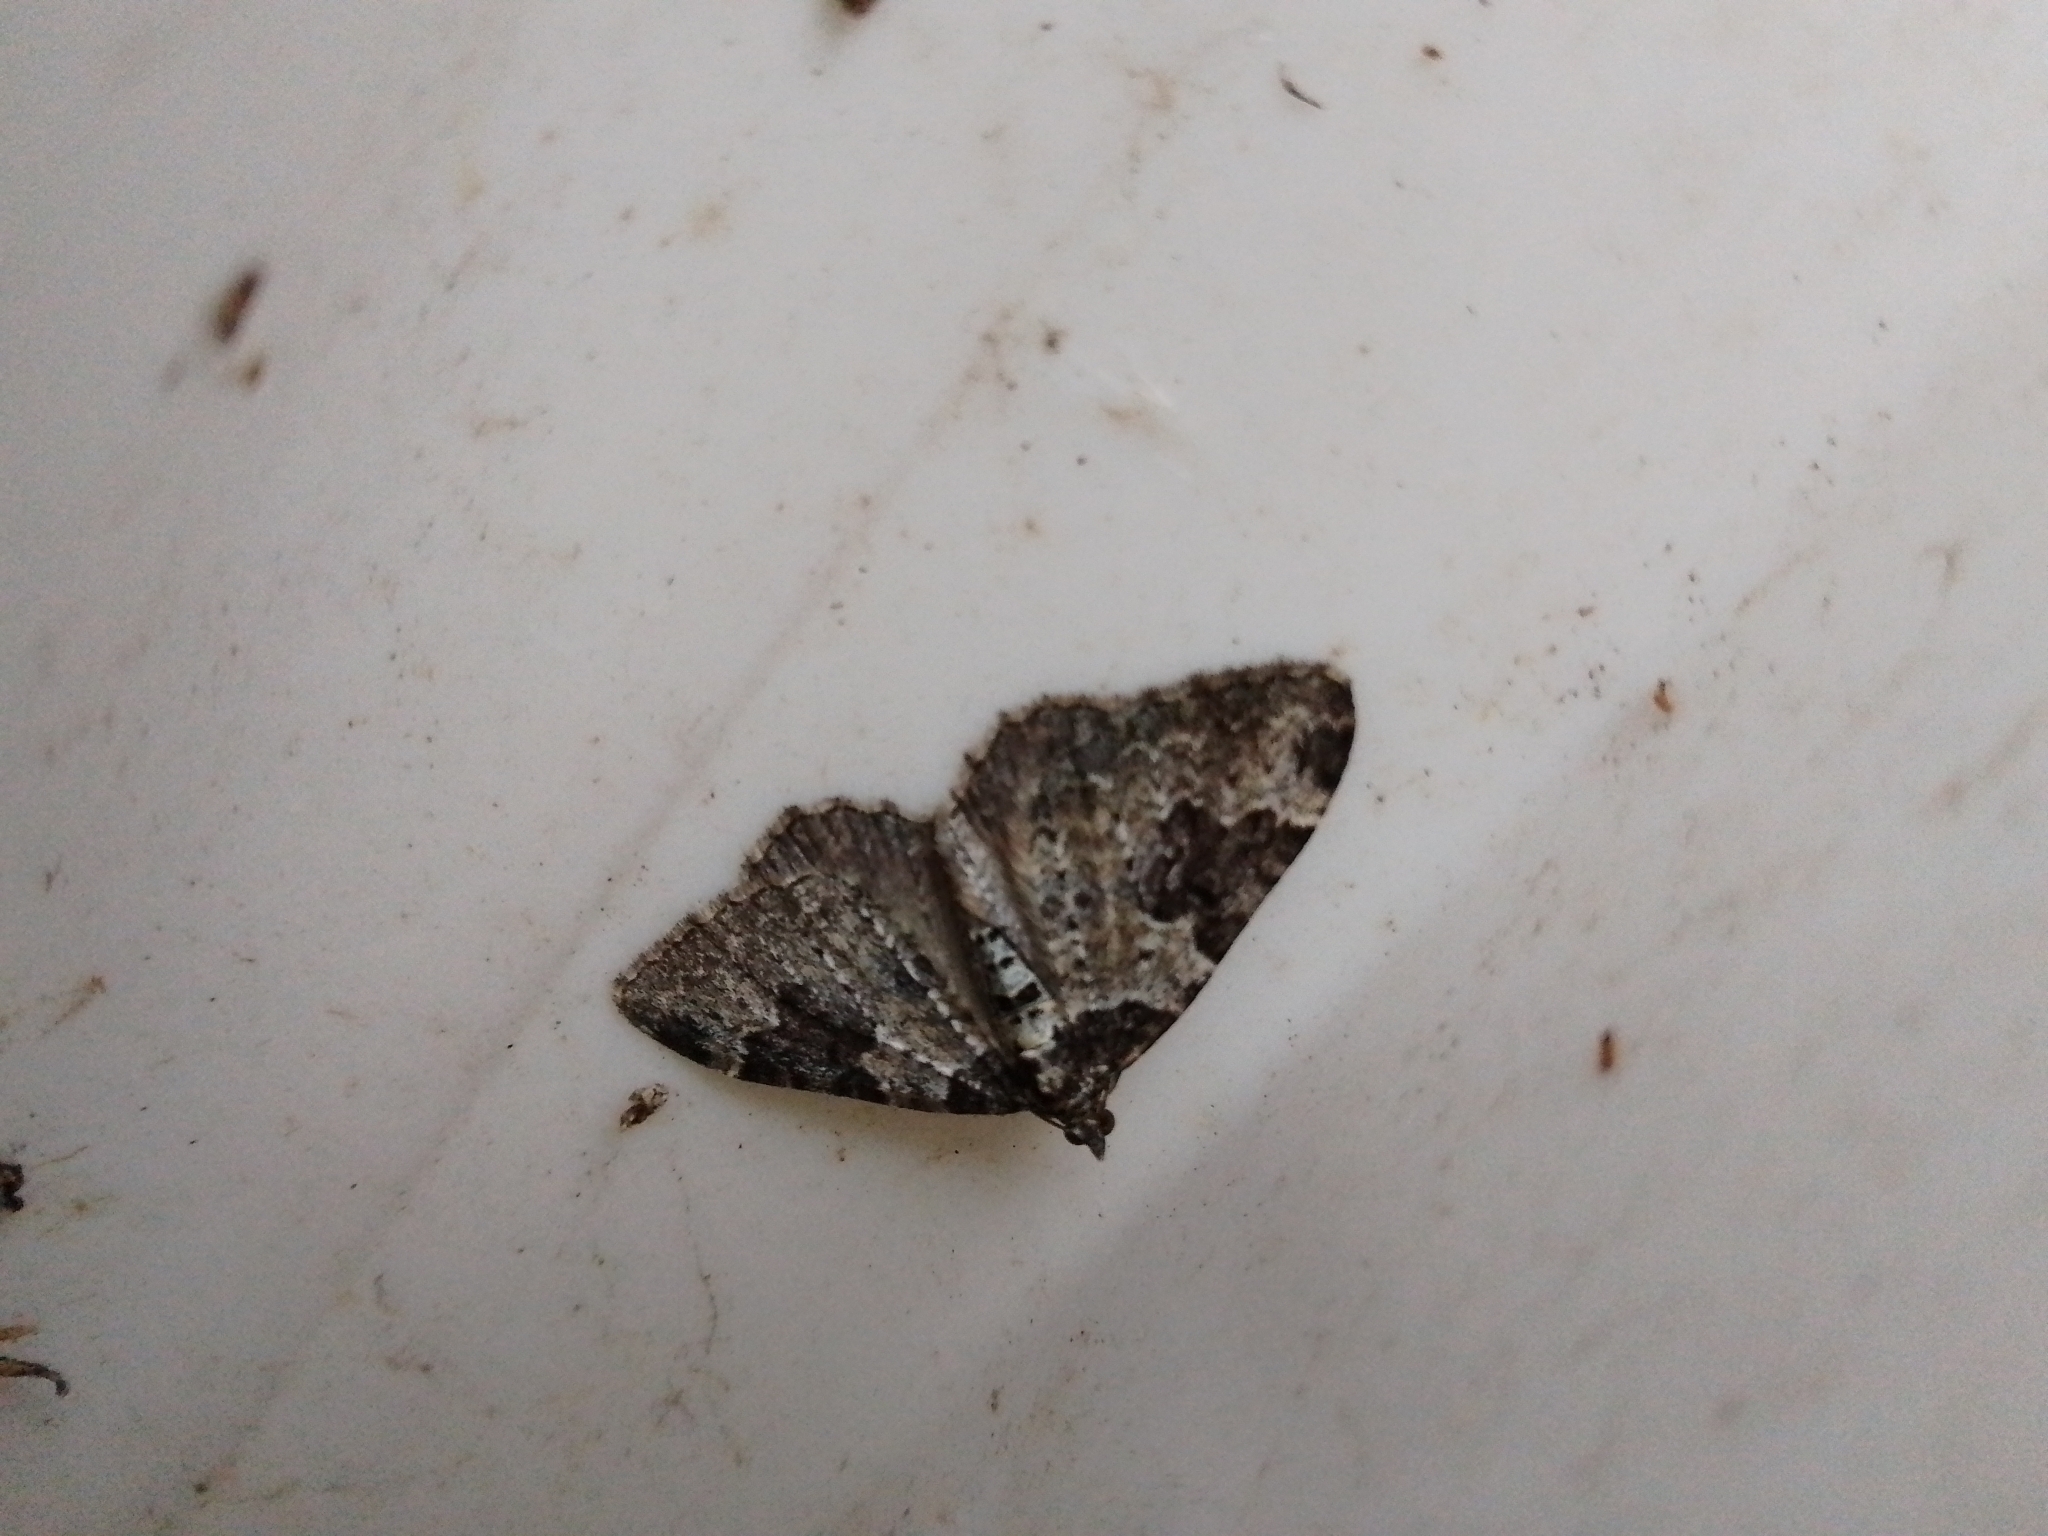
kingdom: Animalia
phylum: Arthropoda
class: Insecta
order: Lepidoptera
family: Geometridae
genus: Xanthorhoe
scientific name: Xanthorhoe fluctuata
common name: Garden carpet
